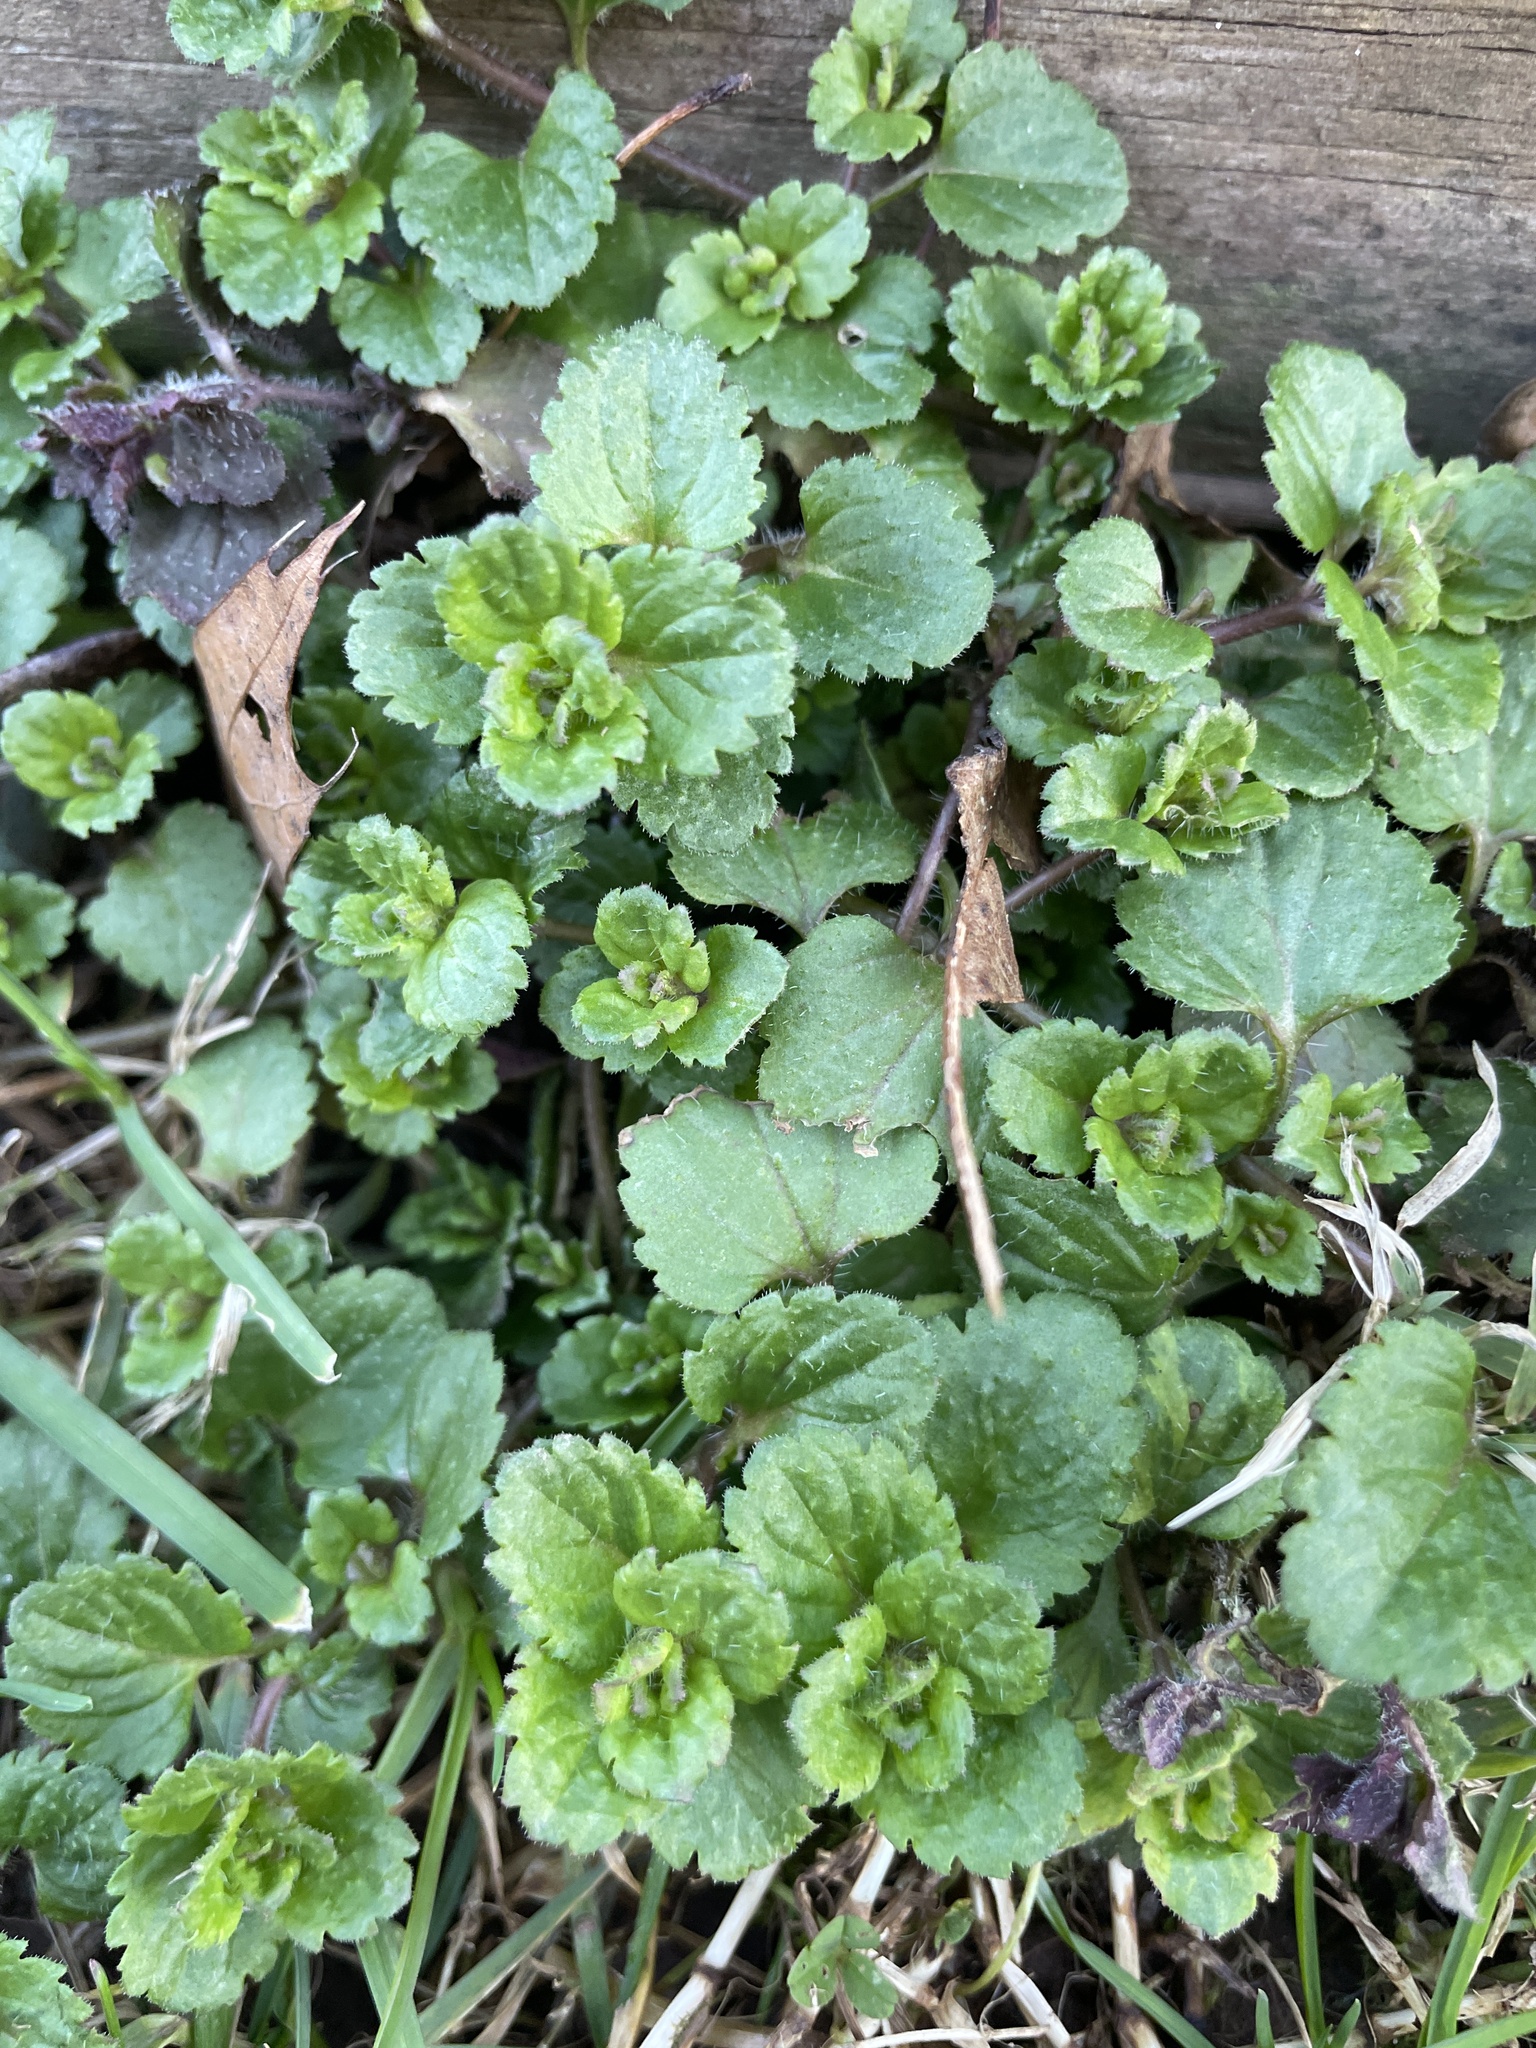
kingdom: Plantae
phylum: Tracheophyta
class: Magnoliopsida
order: Lamiales
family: Plantaginaceae
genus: Veronica
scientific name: Veronica persica
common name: Common field-speedwell
